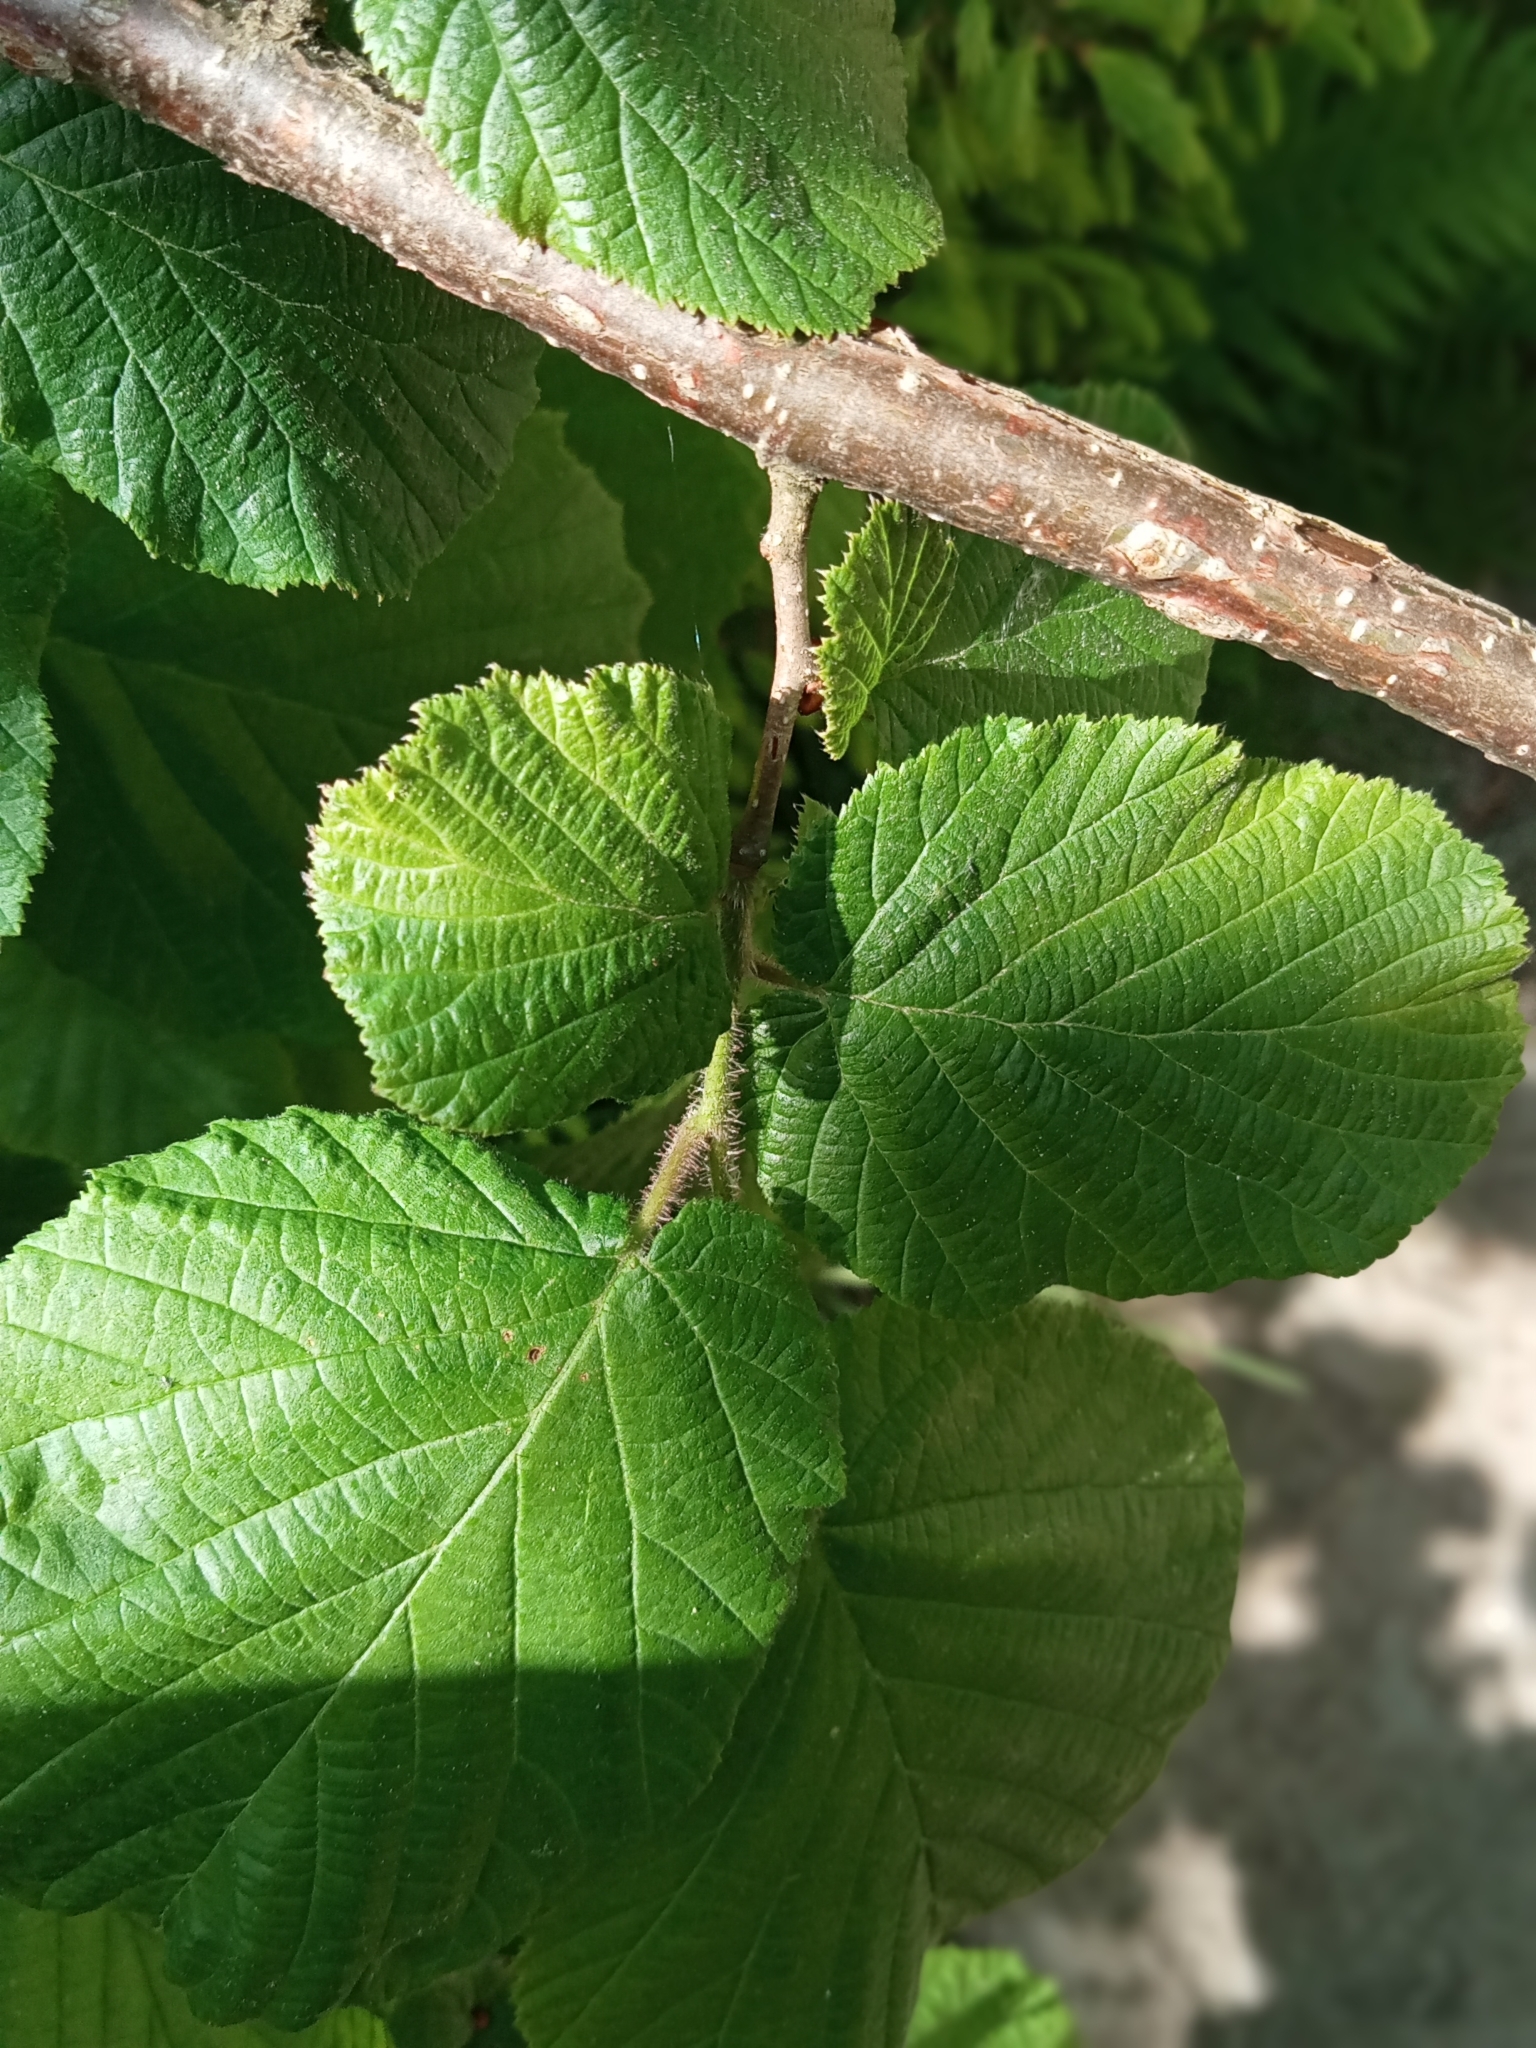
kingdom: Plantae
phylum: Tracheophyta
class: Magnoliopsida
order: Fagales
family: Betulaceae
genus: Corylus
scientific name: Corylus avellana
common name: European hazel
